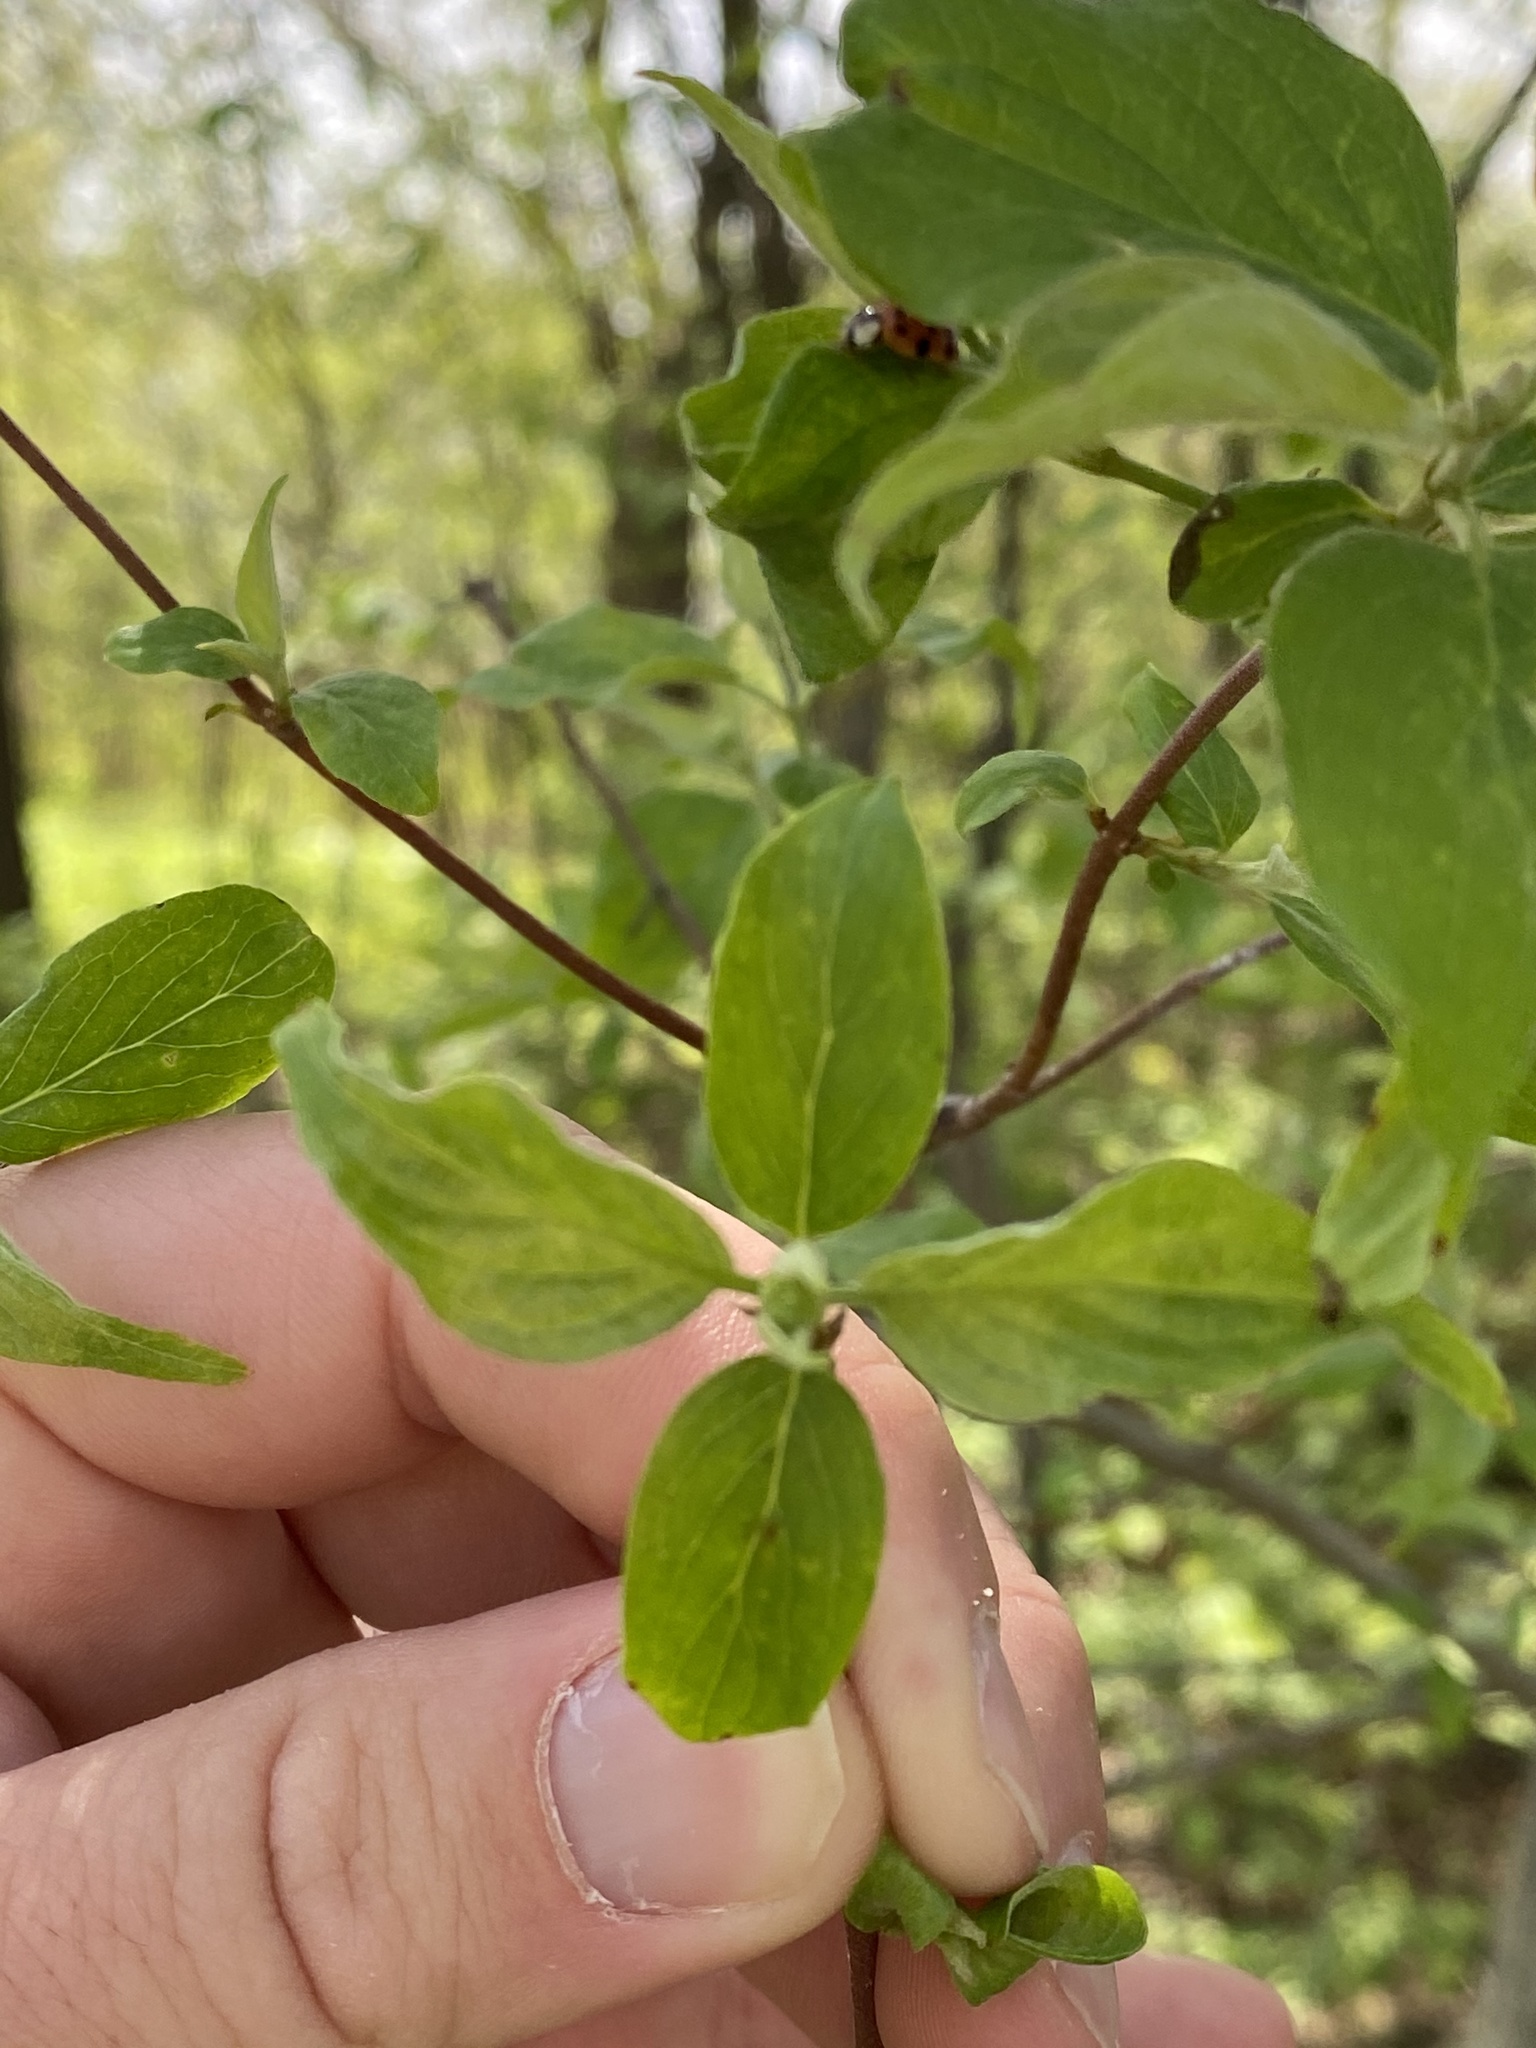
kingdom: Plantae
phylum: Tracheophyta
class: Magnoliopsida
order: Cornales
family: Cornaceae
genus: Cornus
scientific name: Cornus racemosa
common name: Panicled dogwood
